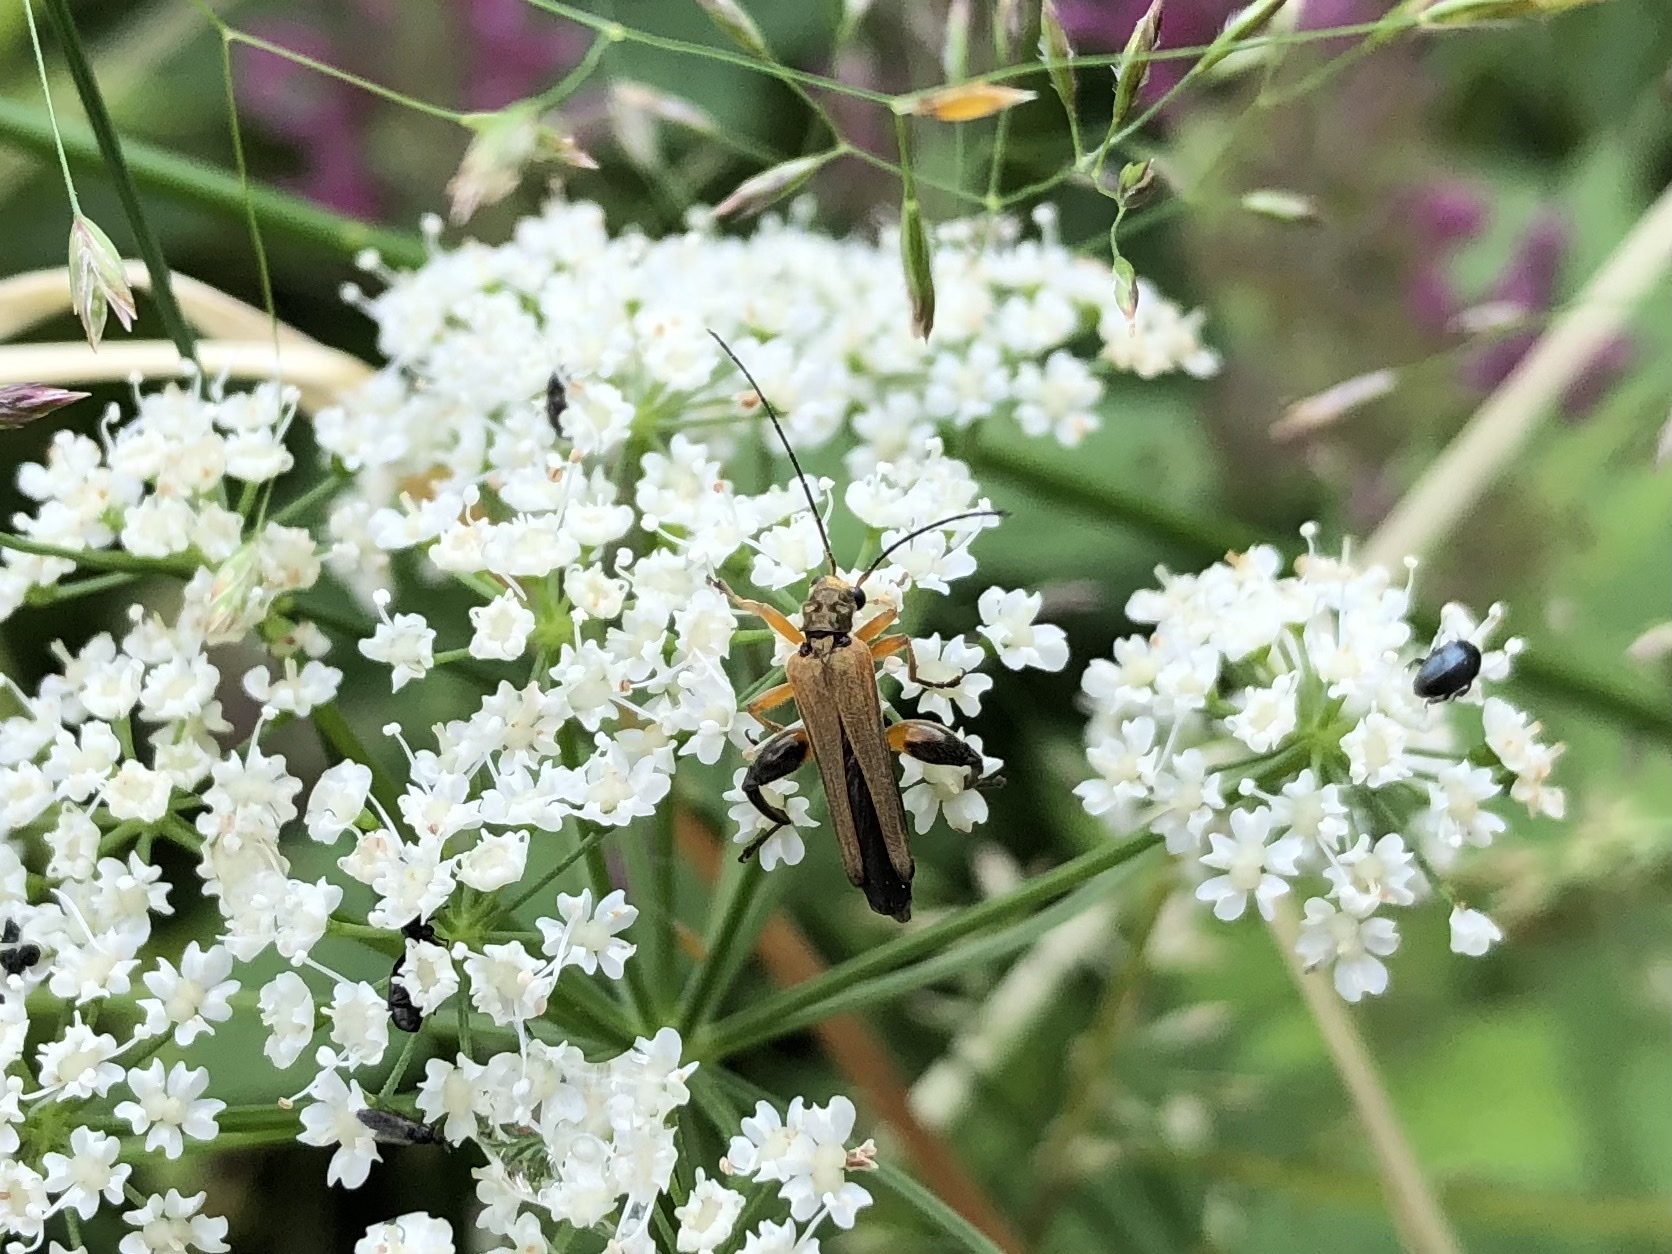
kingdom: Animalia
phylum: Arthropoda
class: Insecta
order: Coleoptera
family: Oedemeridae
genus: Oedemera
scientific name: Oedemera podagrariae
